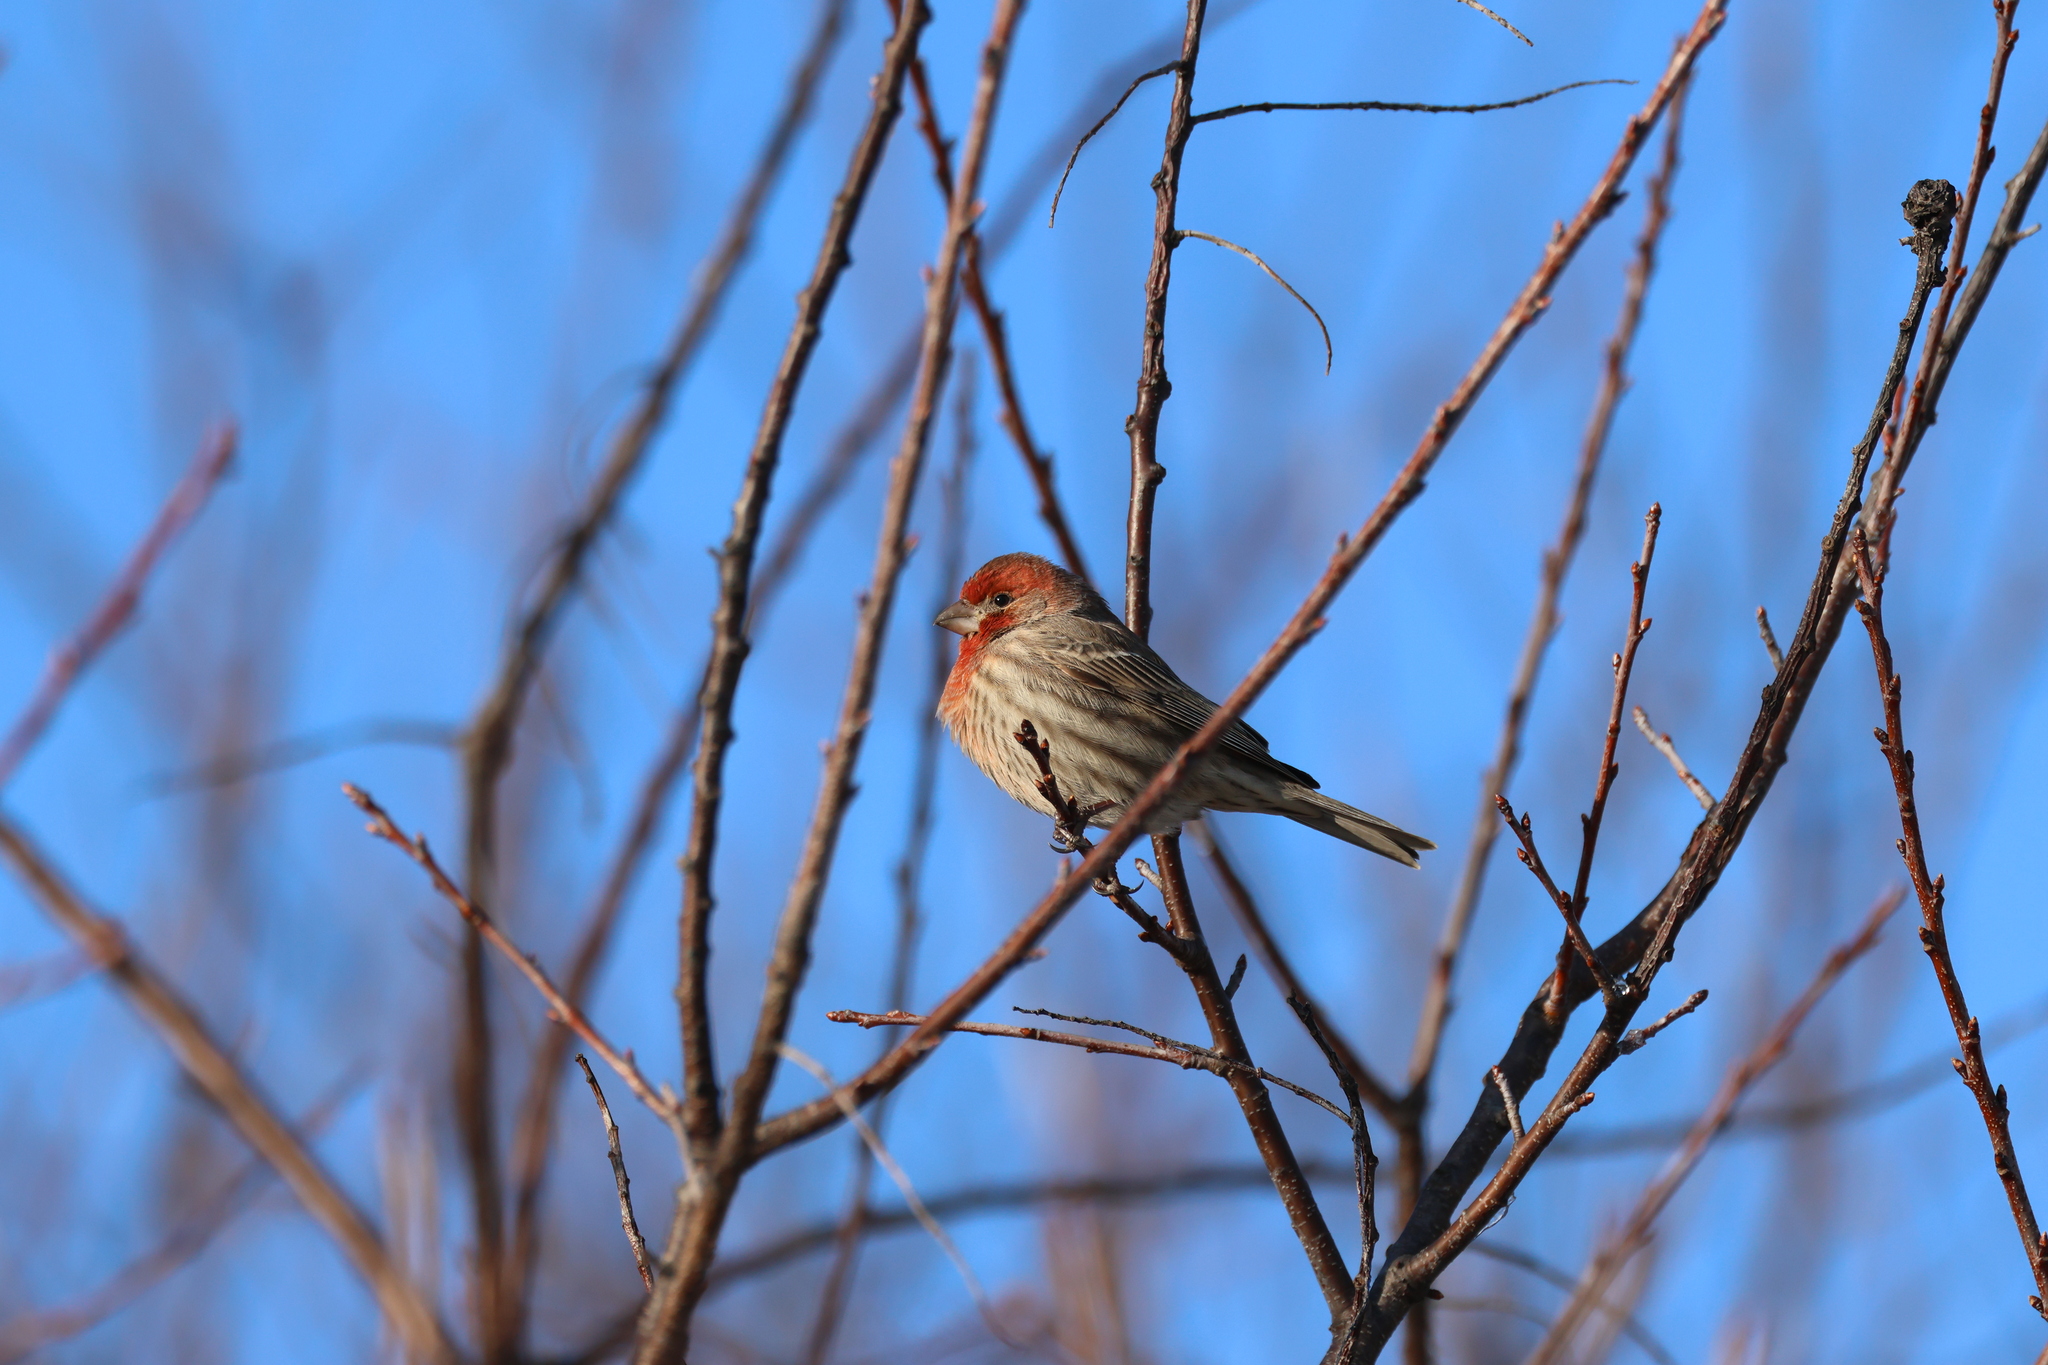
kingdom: Animalia
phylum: Chordata
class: Aves
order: Passeriformes
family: Fringillidae
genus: Haemorhous
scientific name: Haemorhous mexicanus
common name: House finch
